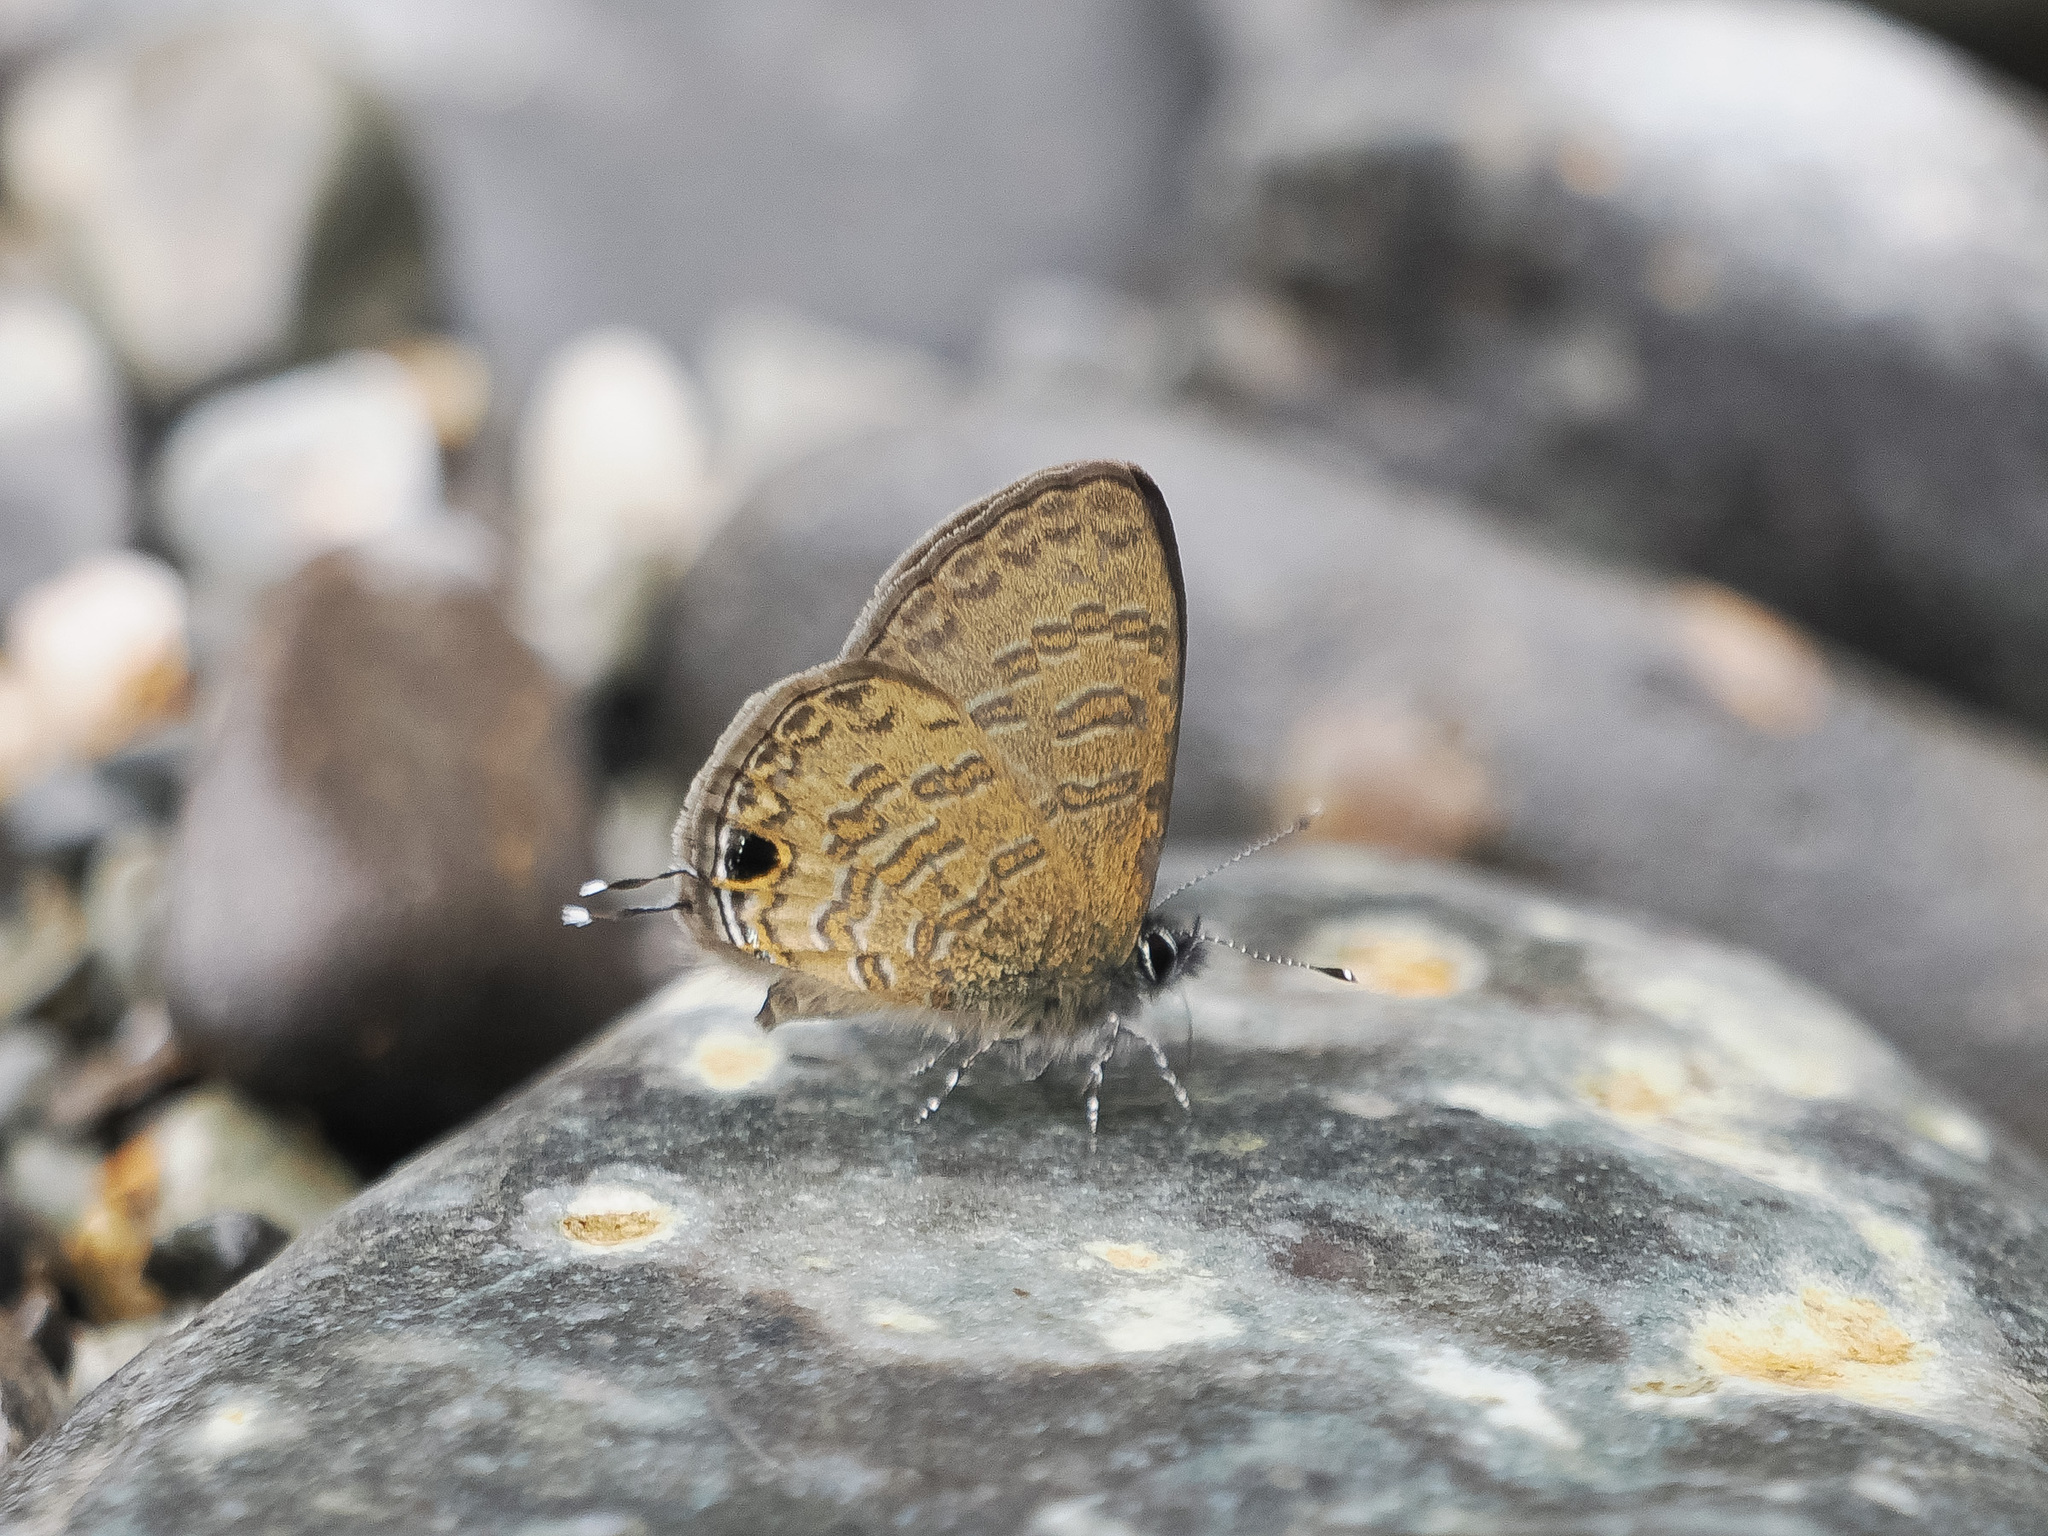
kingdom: Animalia
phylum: Arthropoda
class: Insecta
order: Lepidoptera
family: Lycaenidae
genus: Prosotas
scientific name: Prosotas nora
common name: Common line blue
